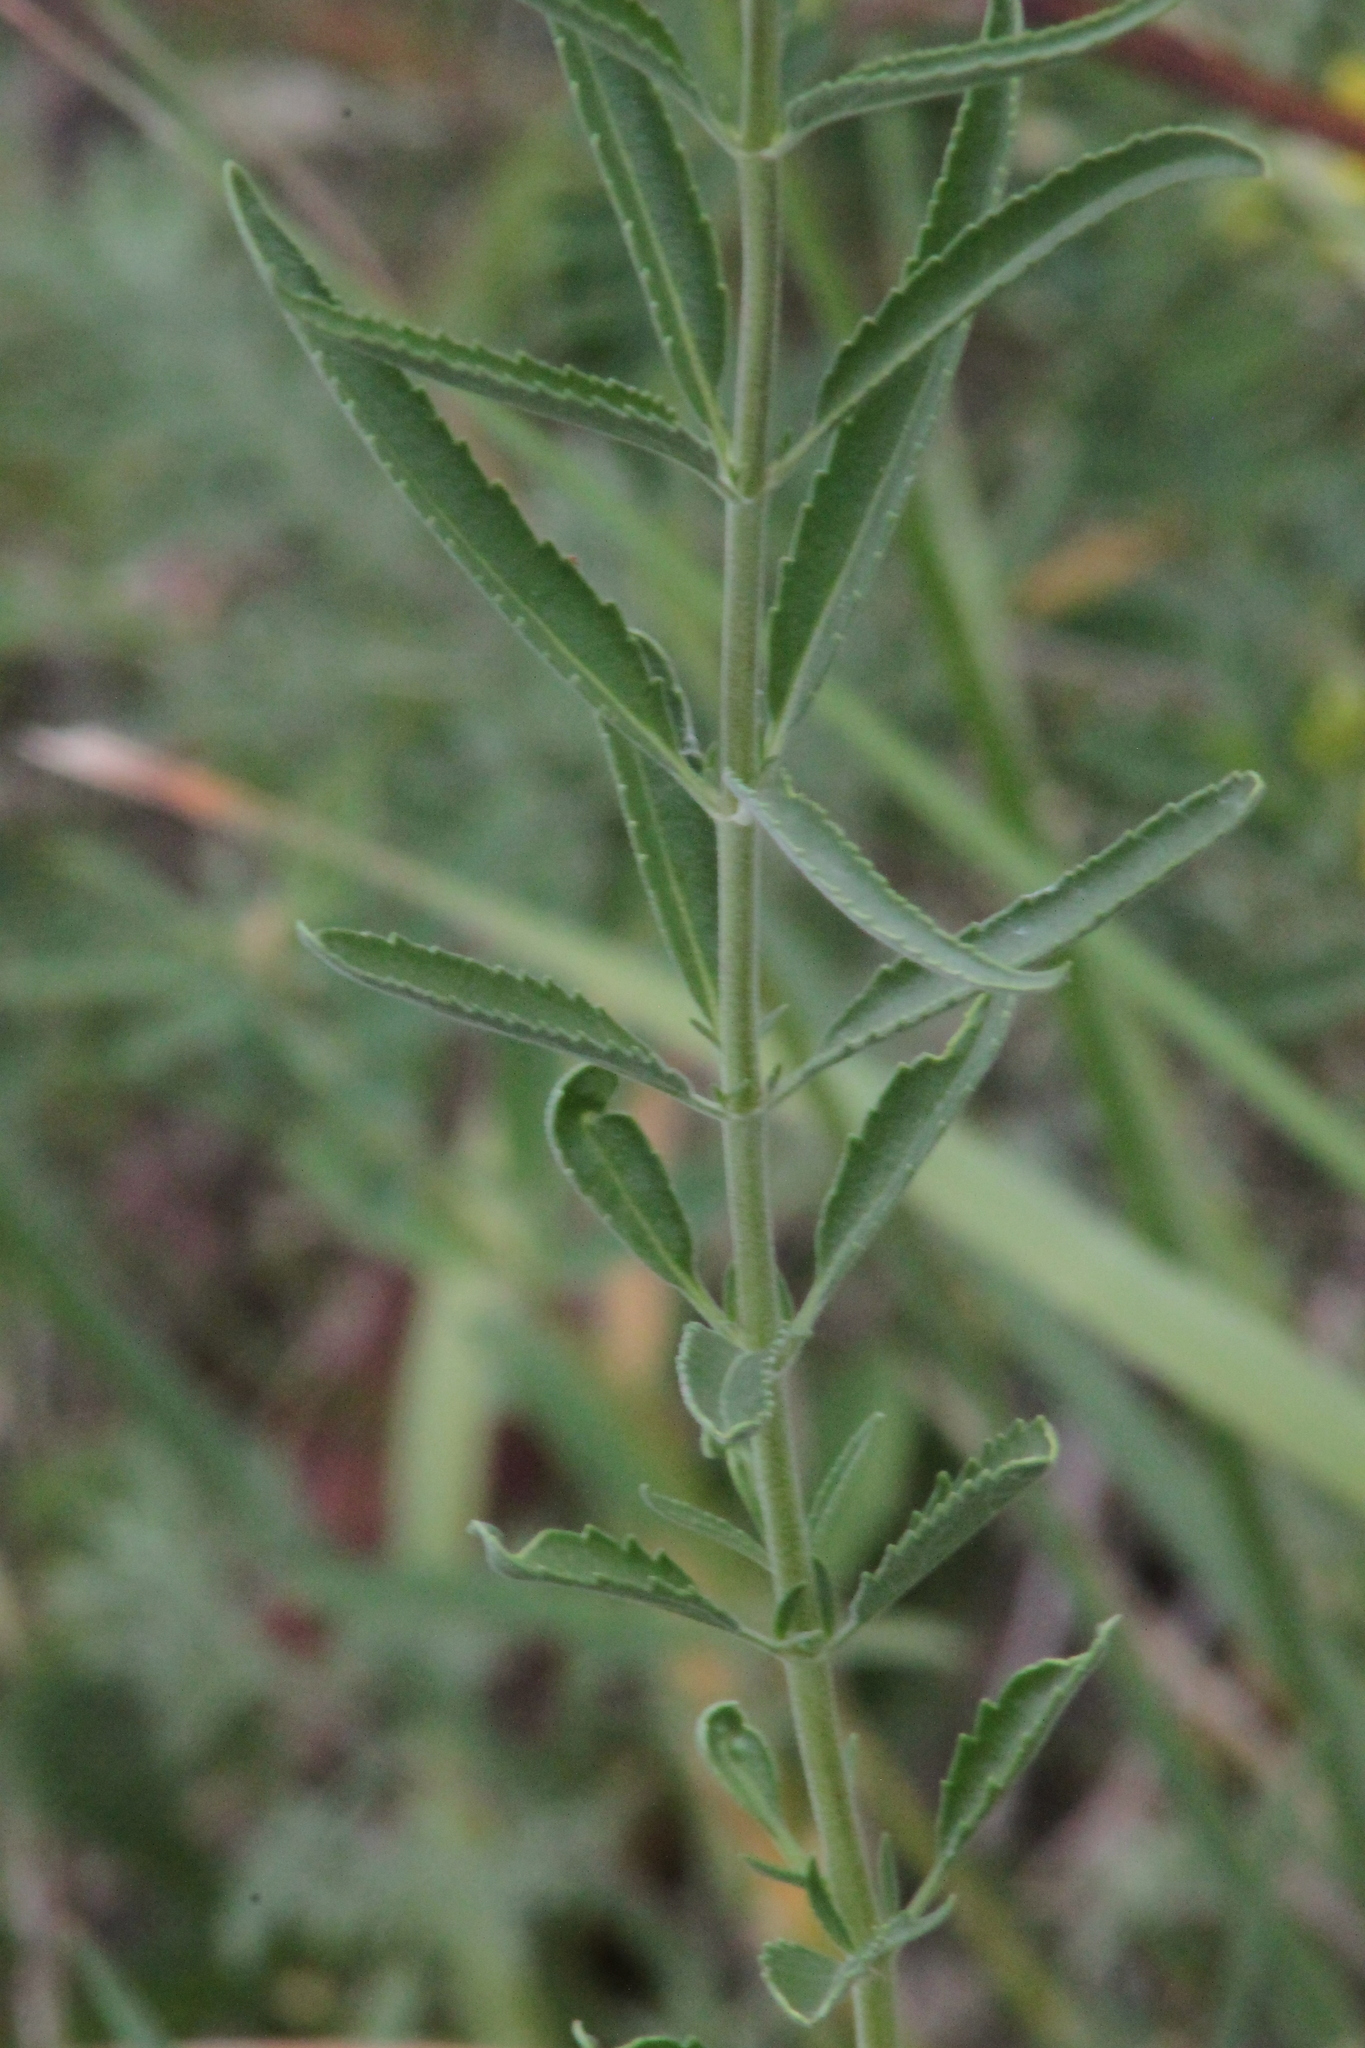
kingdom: Plantae
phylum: Tracheophyta
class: Magnoliopsida
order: Lamiales
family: Plantaginaceae
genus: Veronica
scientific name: Veronica spuria
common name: Bastard speedwell
